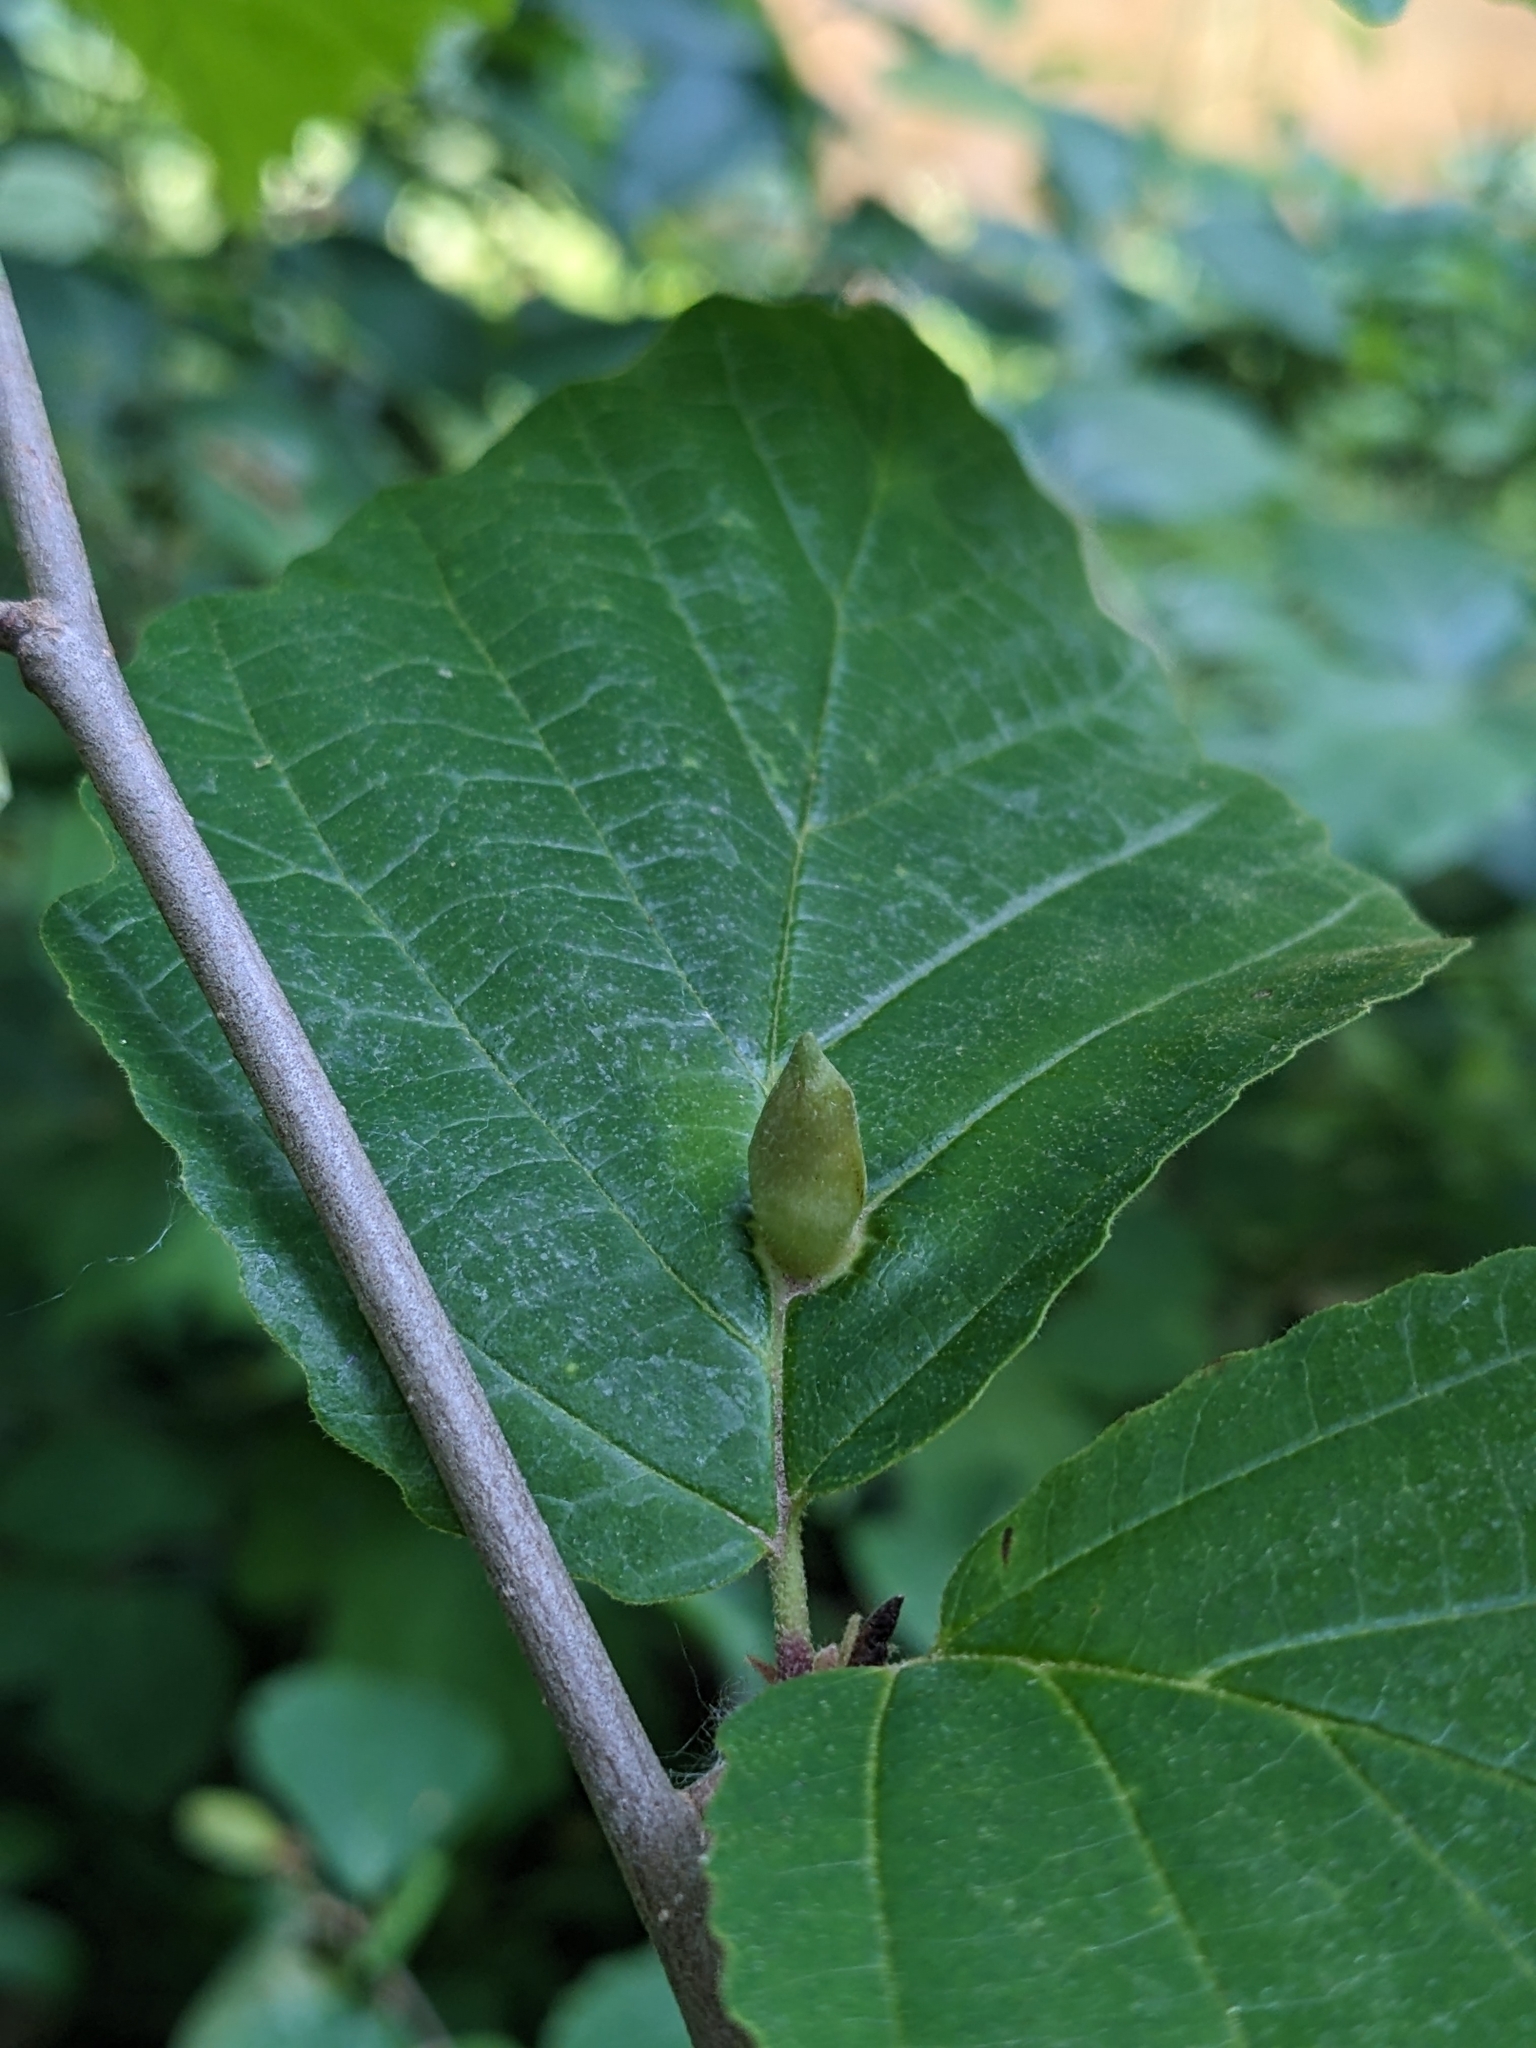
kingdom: Animalia
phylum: Arthropoda
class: Insecta
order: Hemiptera
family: Aphididae
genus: Hormaphis
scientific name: Hormaphis hamamelidis
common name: Witch-hazel cone gall aphid
